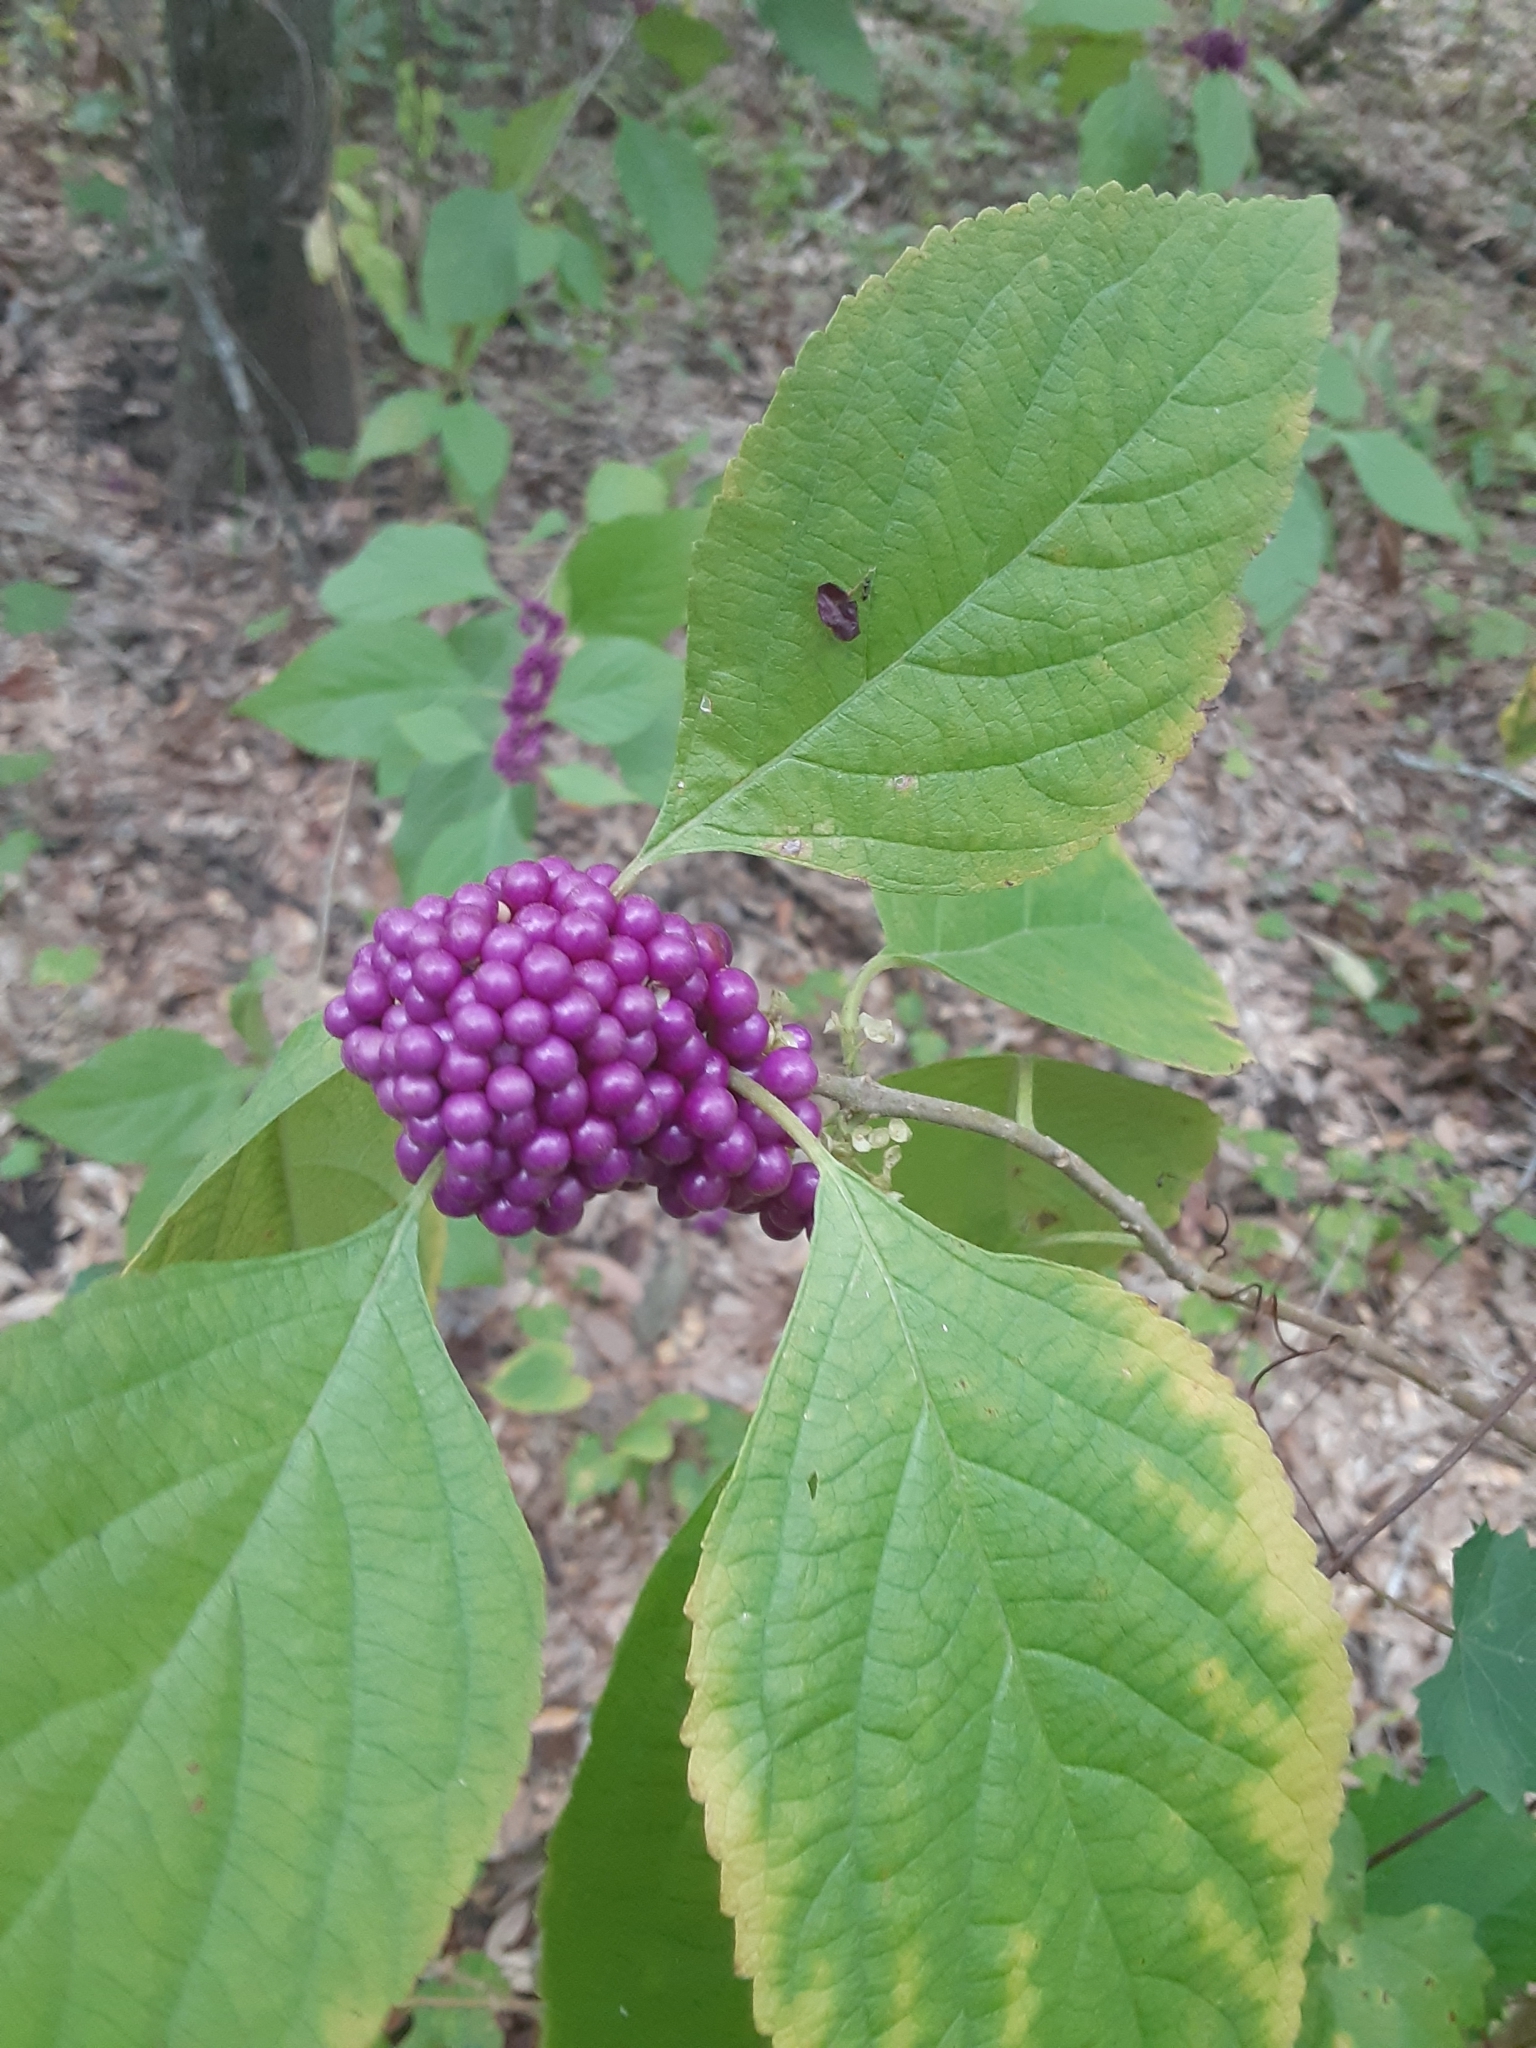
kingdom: Plantae
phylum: Tracheophyta
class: Magnoliopsida
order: Lamiales
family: Lamiaceae
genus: Callicarpa
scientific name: Callicarpa americana
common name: American beautyberry
